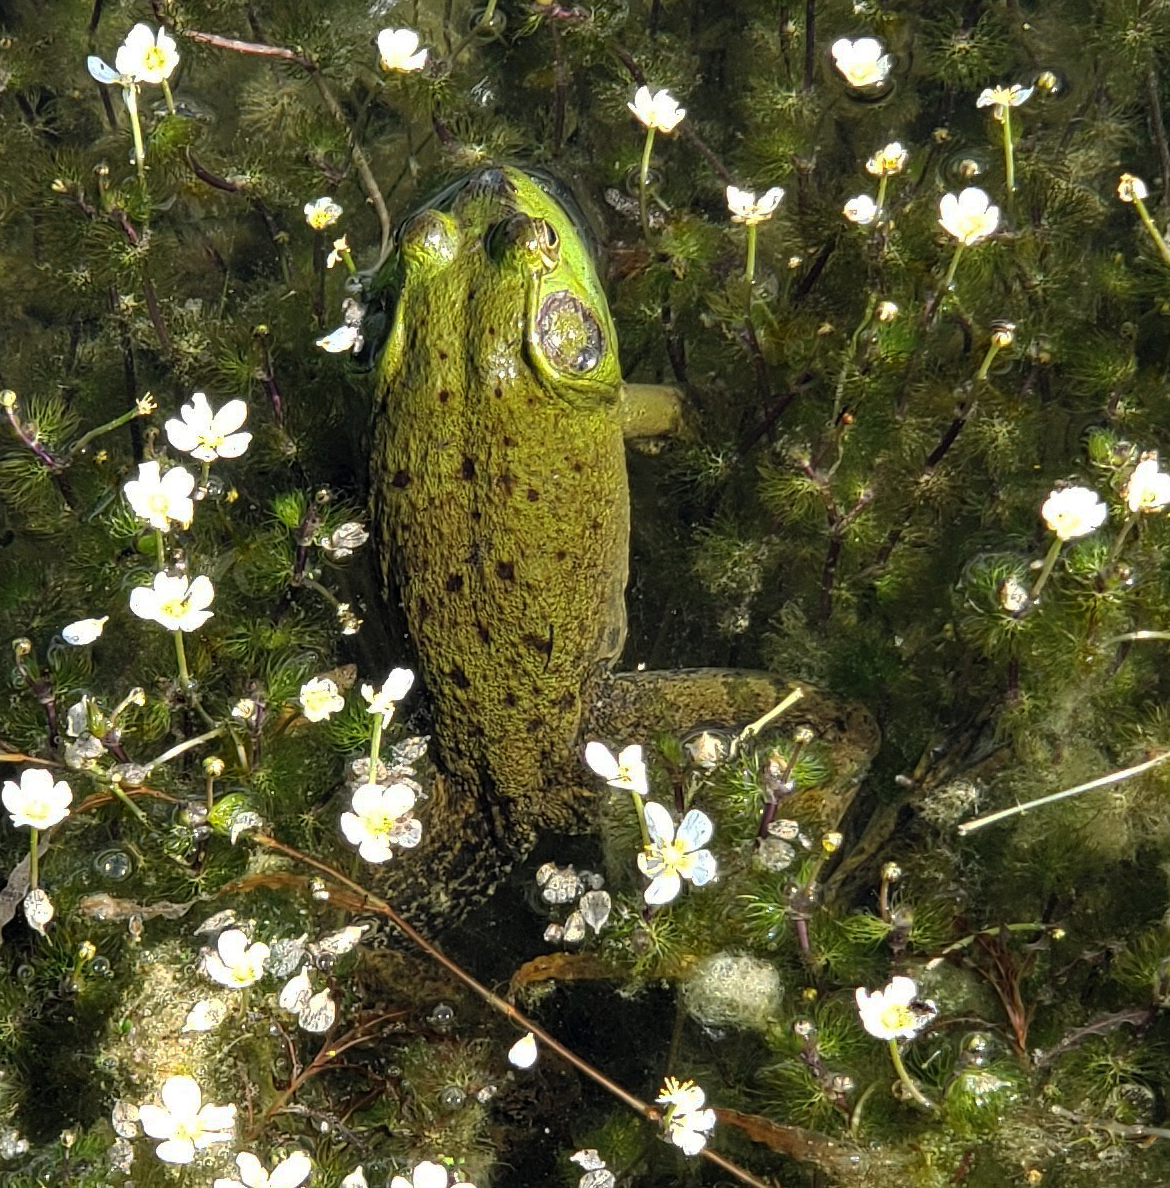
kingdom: Animalia
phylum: Chordata
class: Amphibia
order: Anura
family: Ranidae
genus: Lithobates
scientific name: Lithobates catesbeianus
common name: American bullfrog
